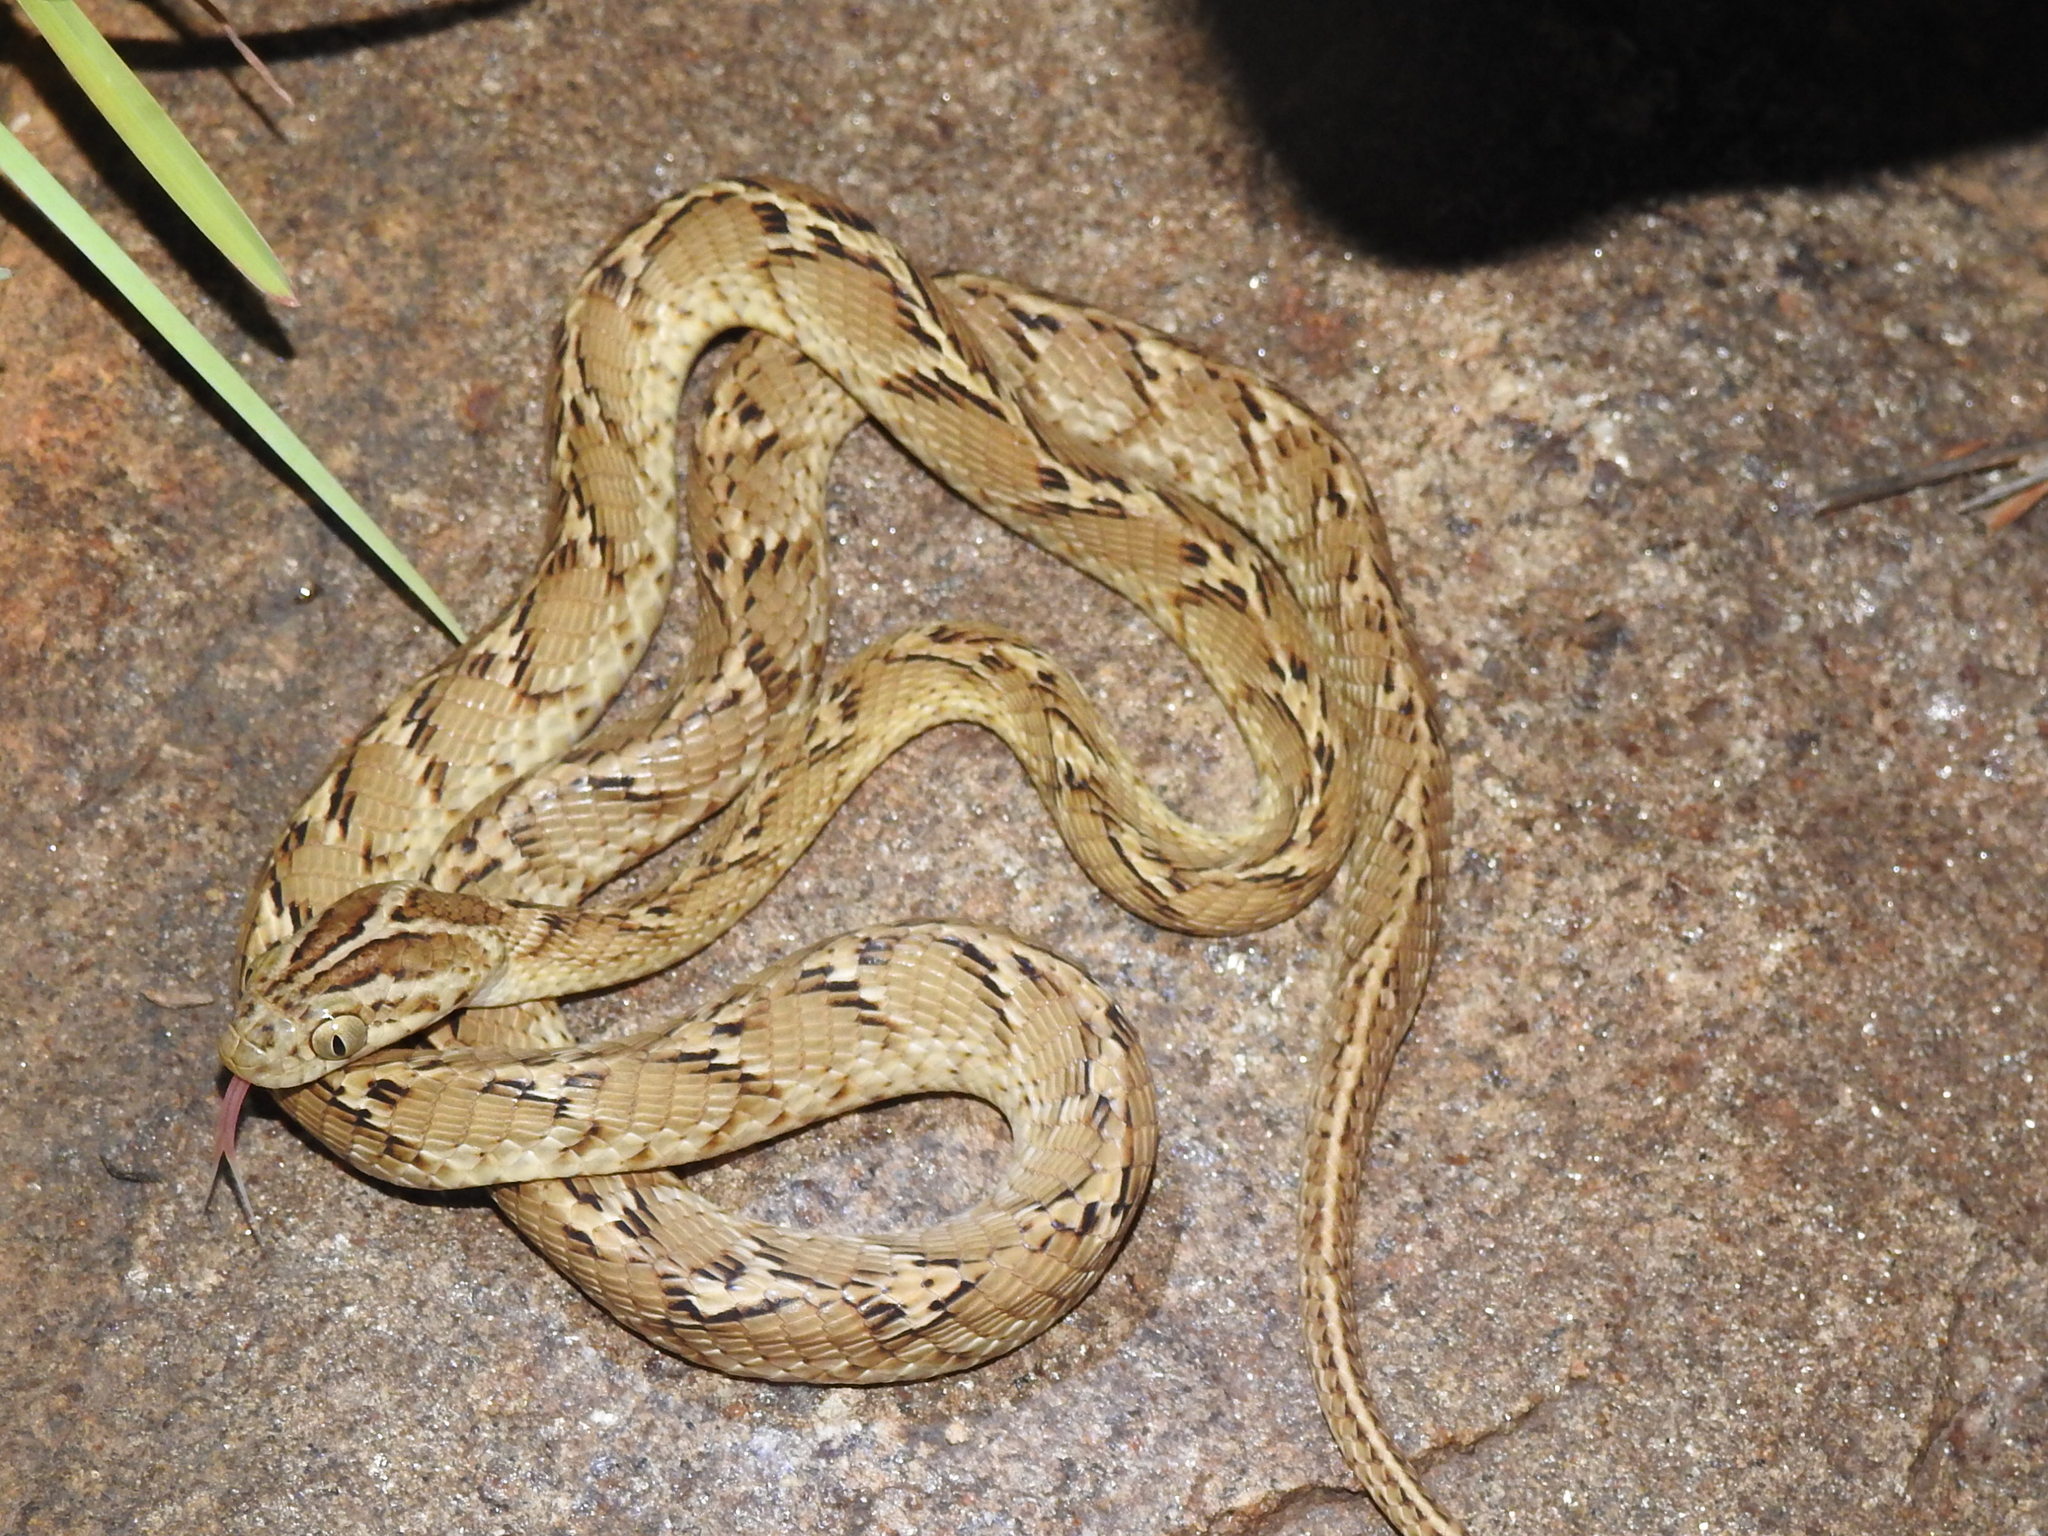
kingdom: Animalia
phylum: Chordata
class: Squamata
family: Colubridae
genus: Boiga
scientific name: Boiga trigonata
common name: Common cat snake
